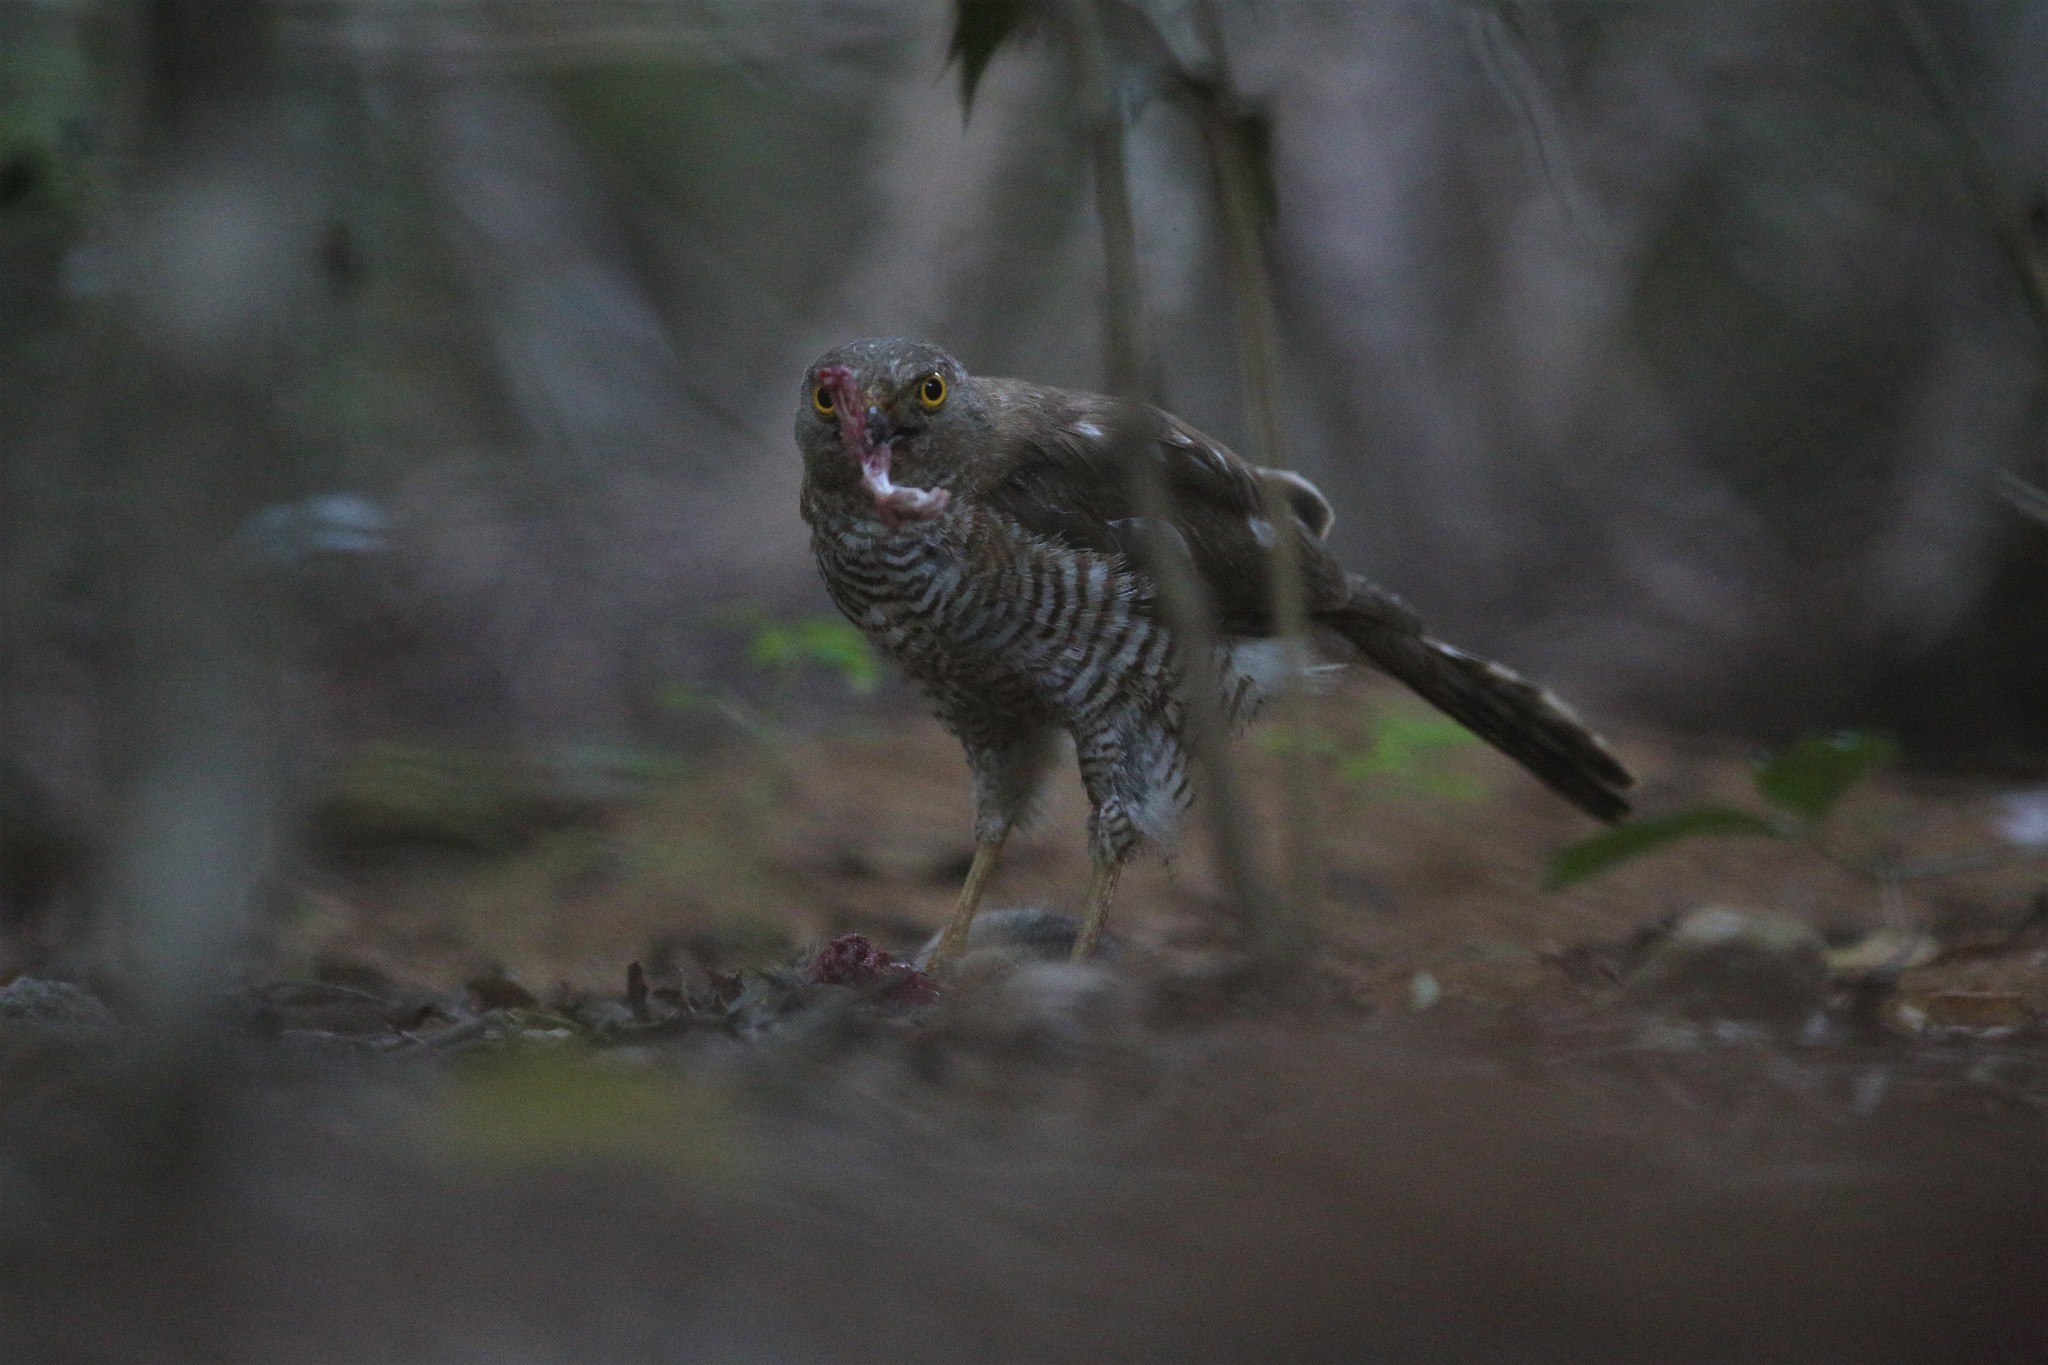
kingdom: Animalia
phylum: Chordata
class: Aves
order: Accipitriformes
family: Accipitridae
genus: Accipiter
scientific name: Accipiter madagascariensis
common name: Madagascar sparrowhawk
